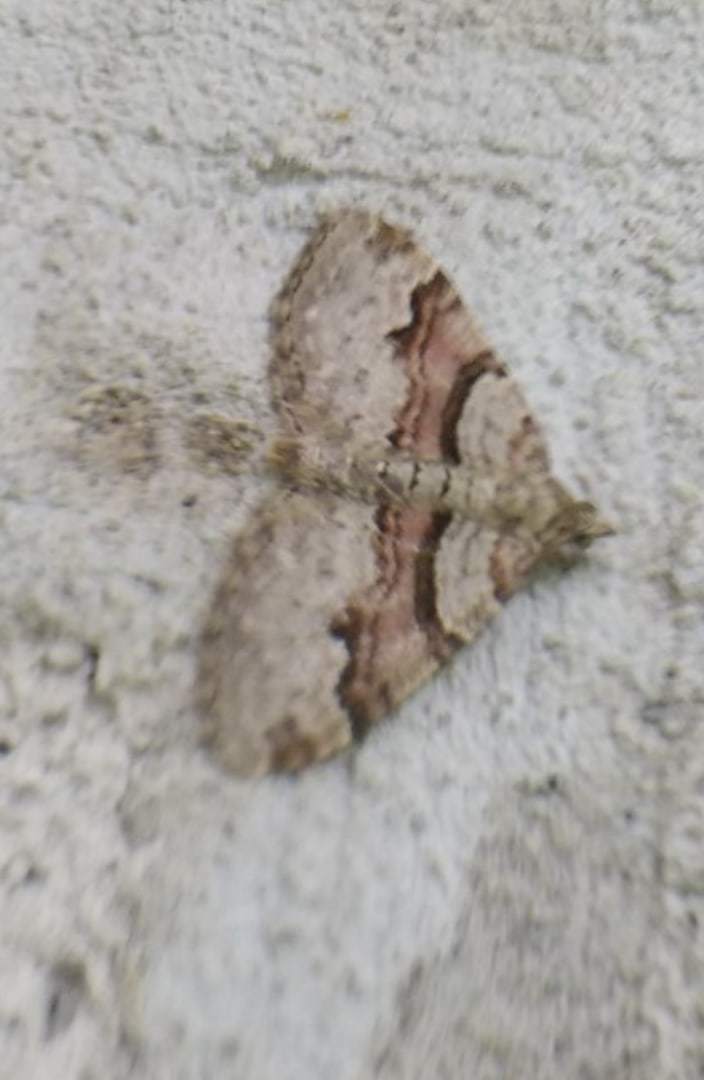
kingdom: Animalia
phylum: Arthropoda
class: Insecta
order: Lepidoptera
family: Geometridae
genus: Xanthorhoe
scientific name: Xanthorhoe designata
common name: Flame carpet
